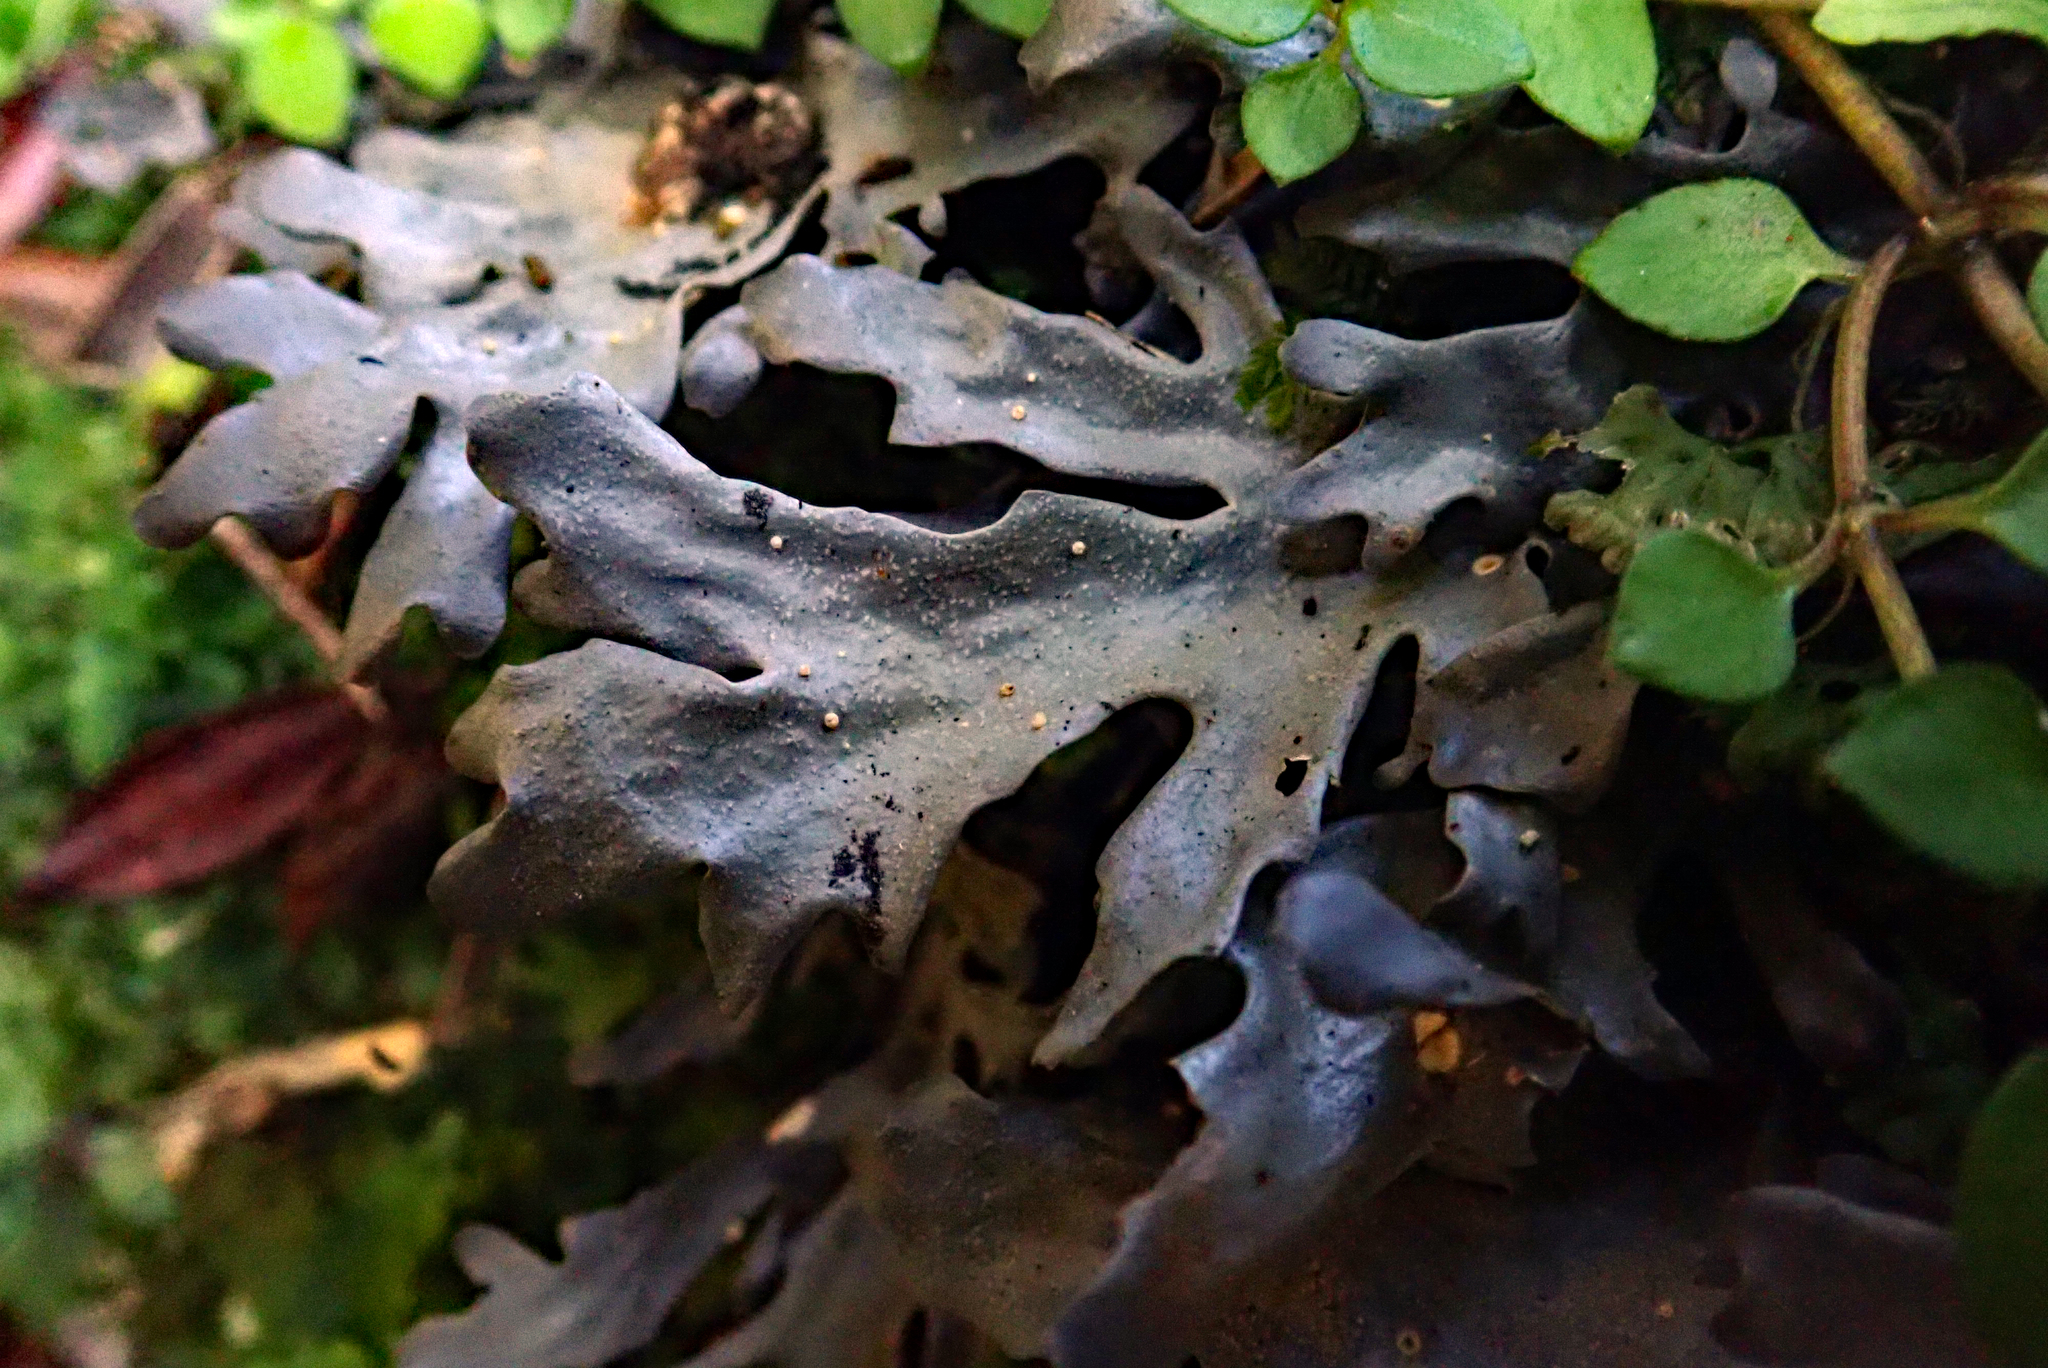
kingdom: Fungi
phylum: Ascomycota
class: Lecanoromycetes
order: Peltigerales
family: Lobariaceae
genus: Pseudocyphellaria
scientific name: Pseudocyphellaria cinnamomea
